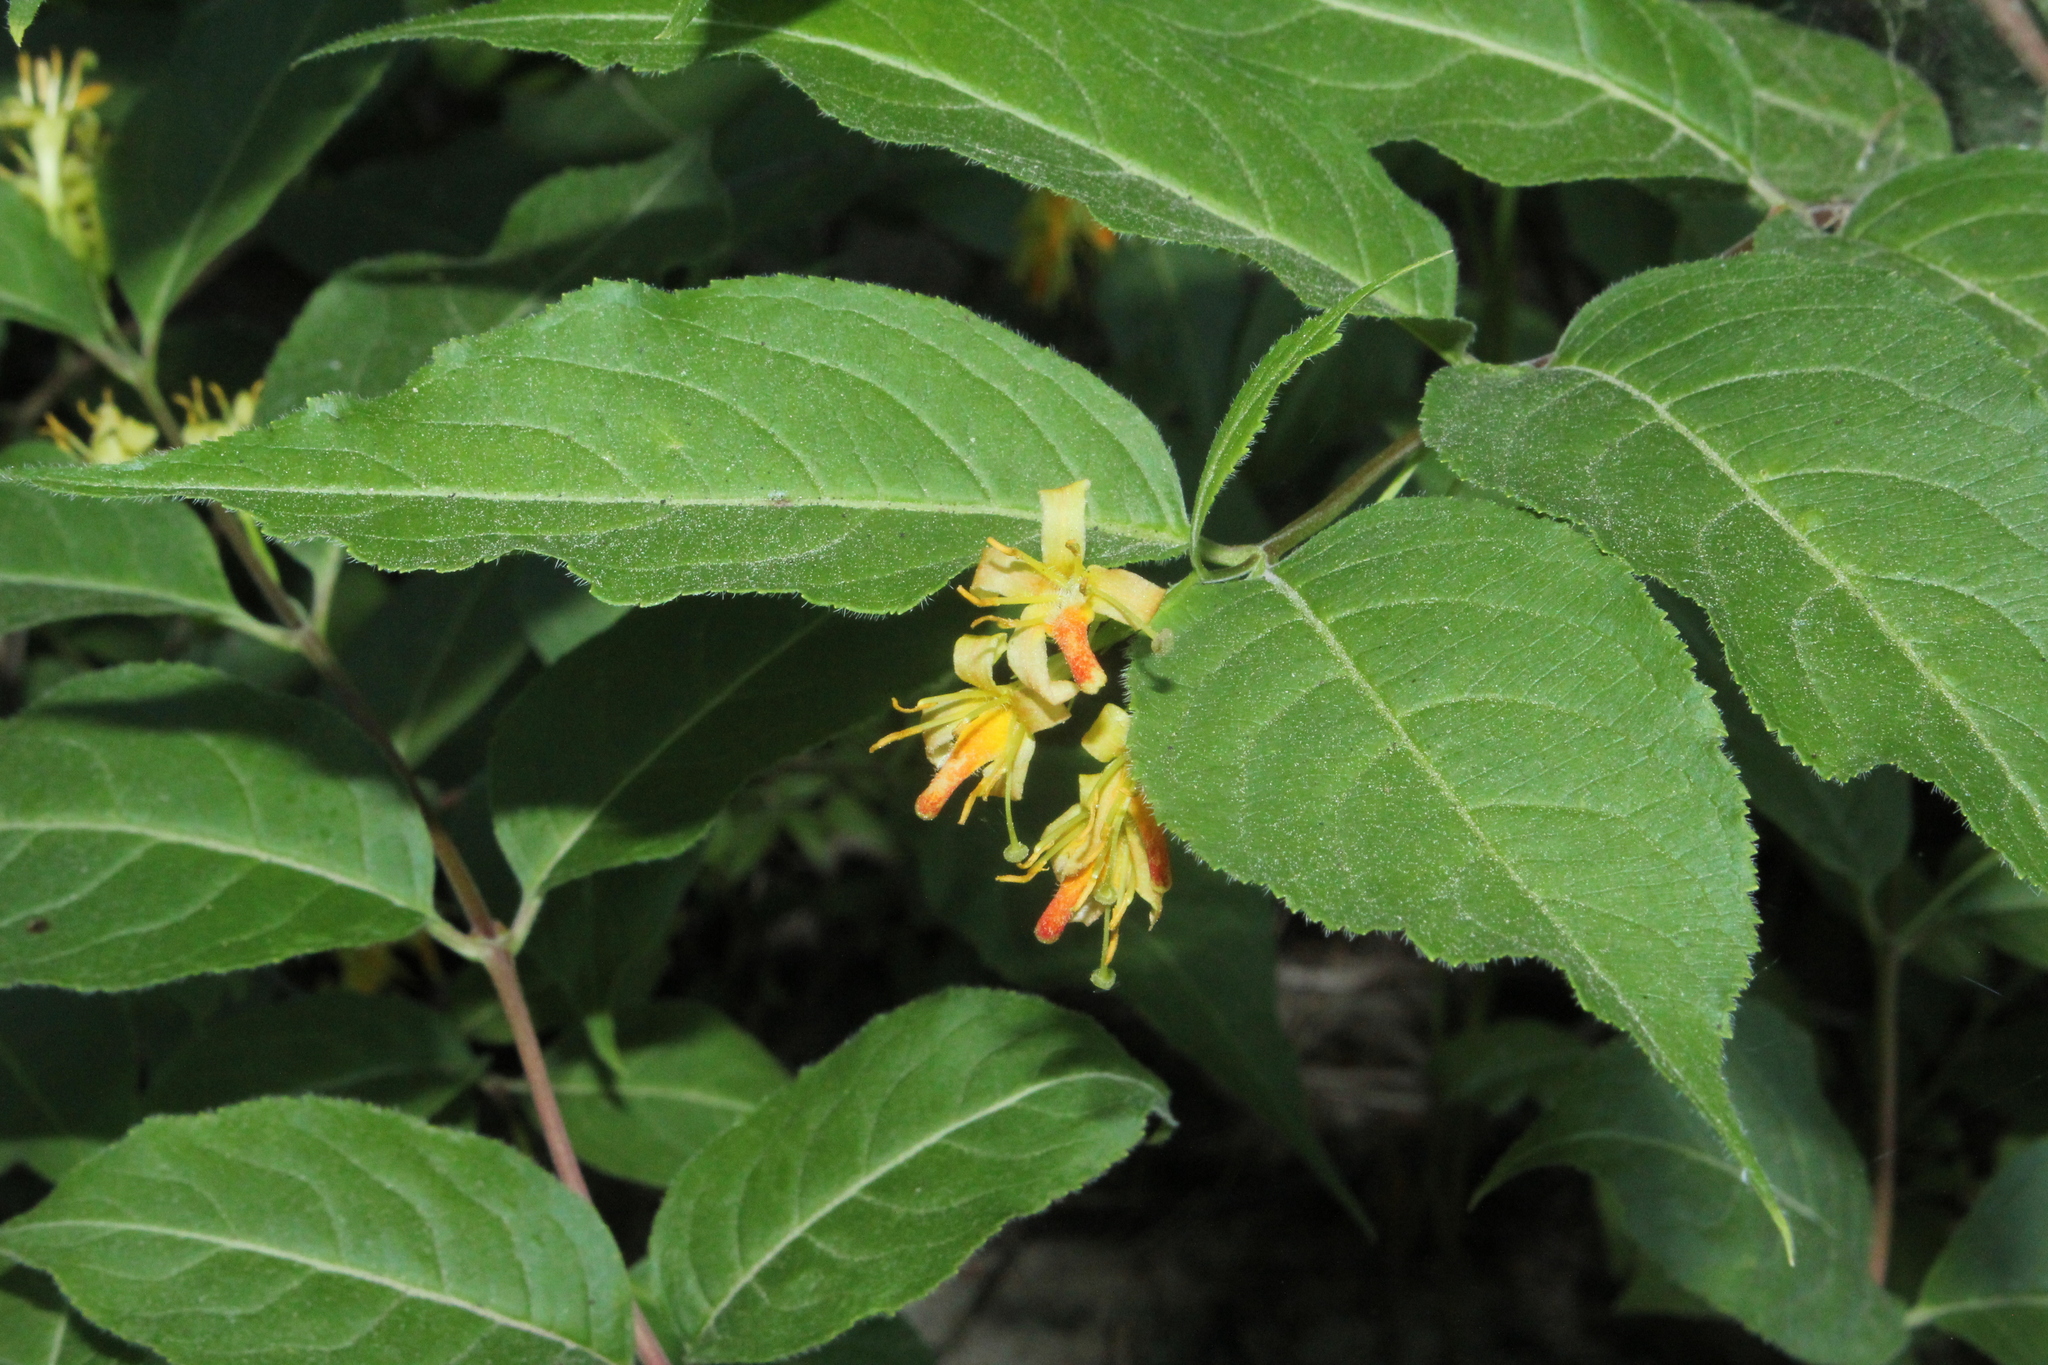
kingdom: Plantae
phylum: Tracheophyta
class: Magnoliopsida
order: Dipsacales
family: Caprifoliaceae
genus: Diervilla
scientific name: Diervilla lonicera
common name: Bush-honeysuckle
